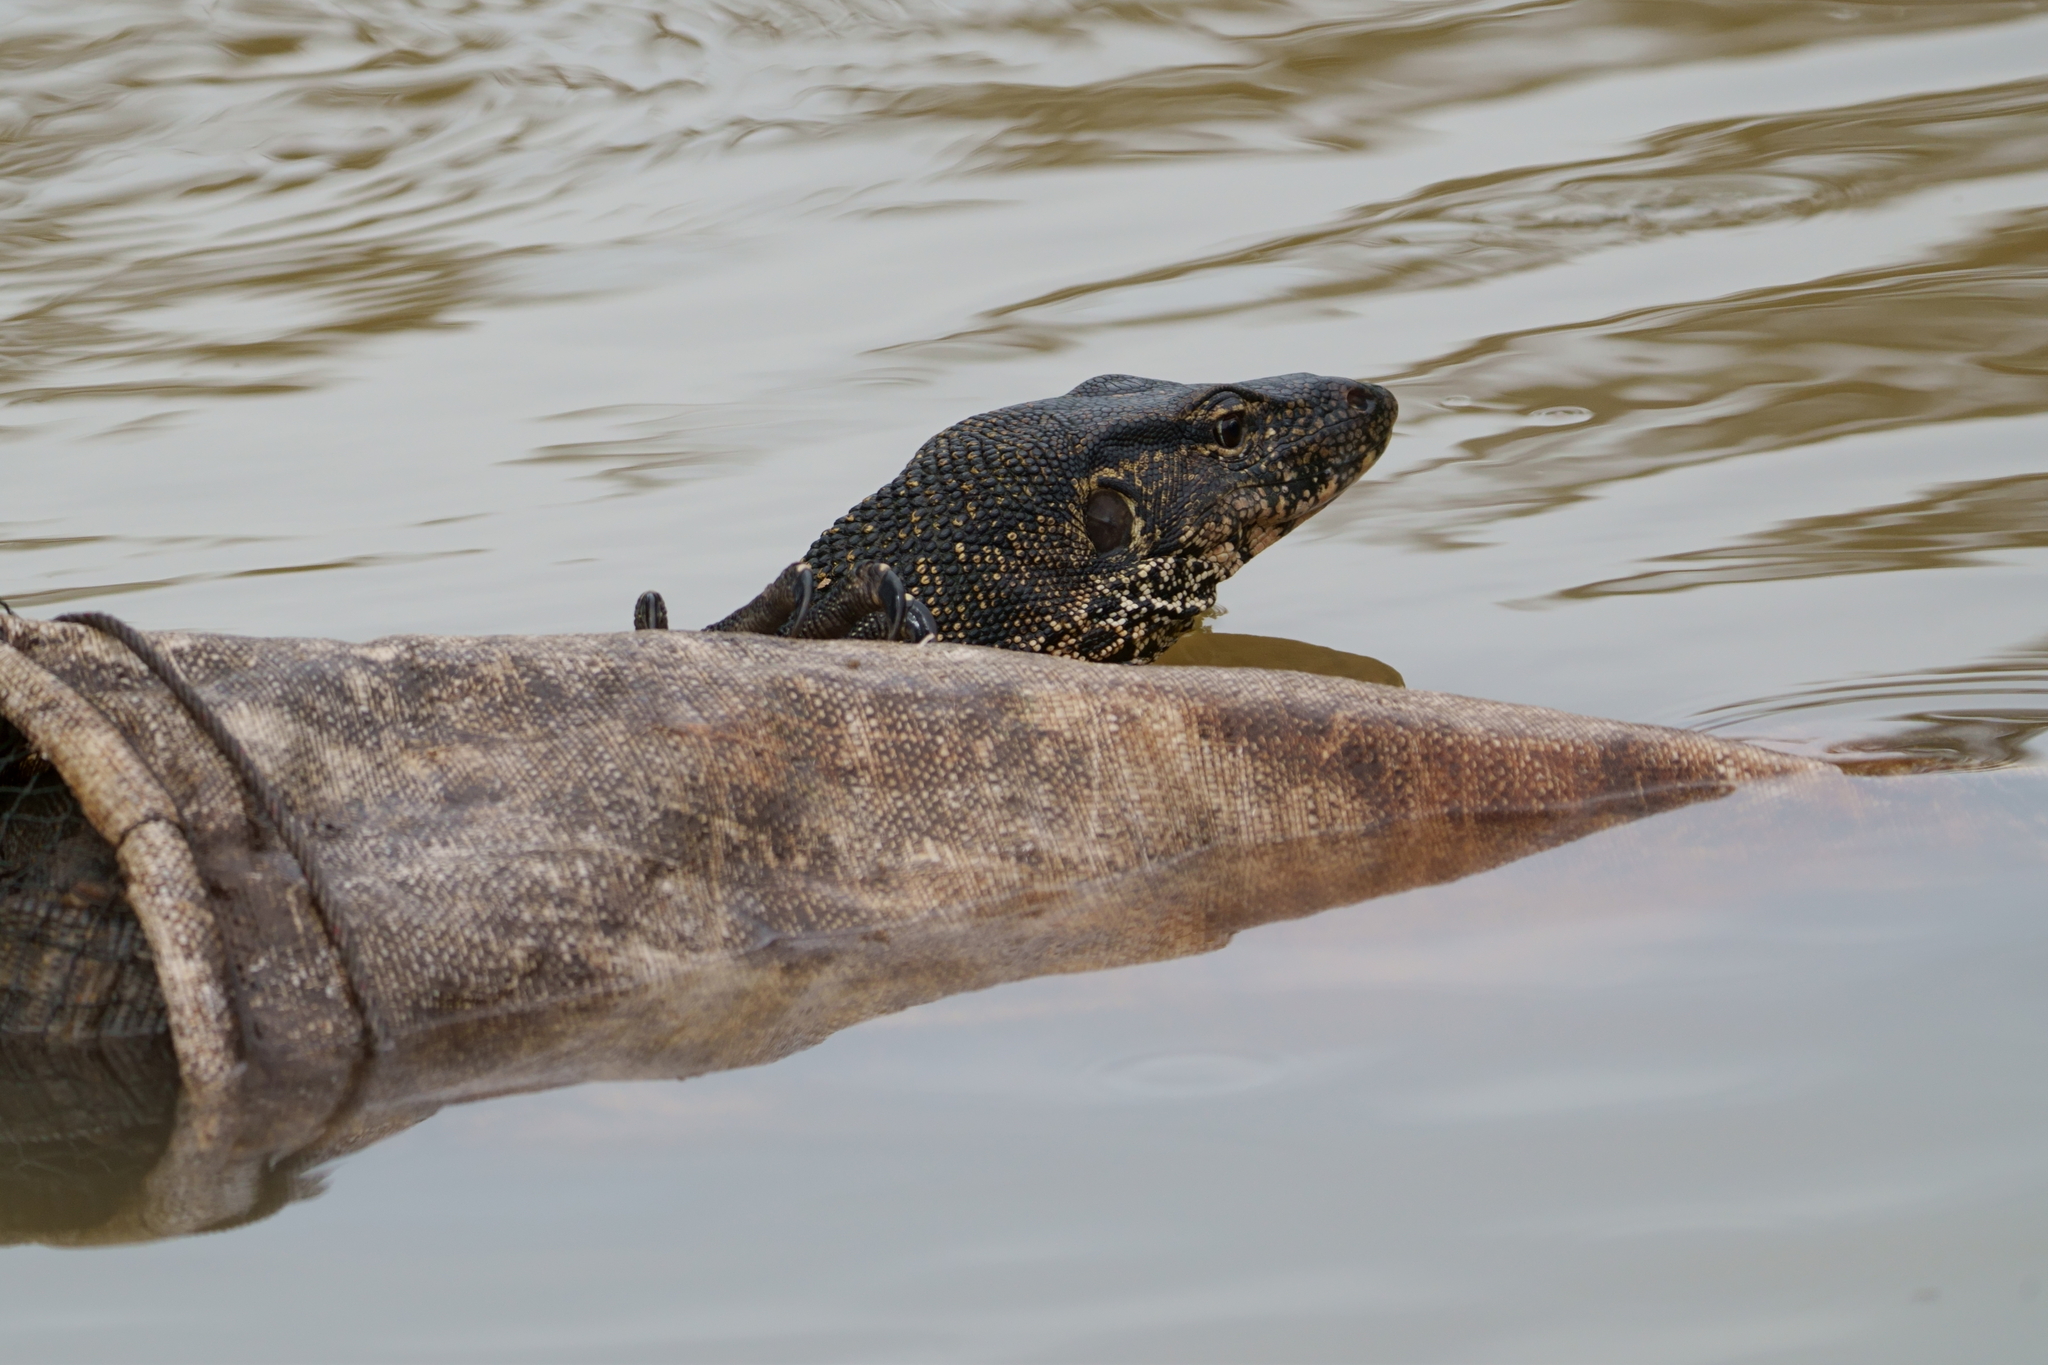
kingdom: Animalia
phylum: Chordata
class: Squamata
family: Varanidae
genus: Varanus
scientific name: Varanus salvator
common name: Common water monitor
